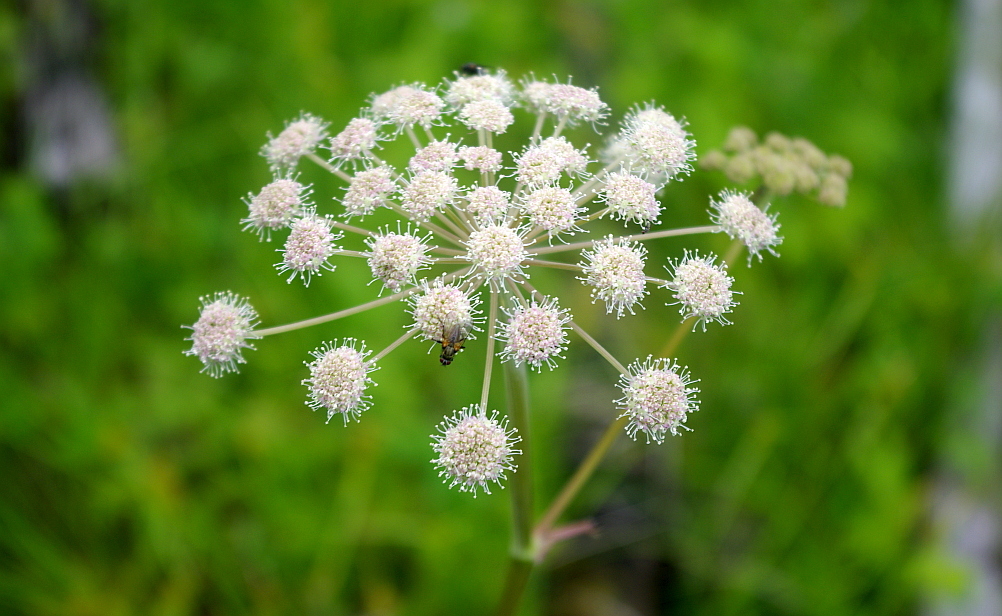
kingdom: Plantae
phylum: Tracheophyta
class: Magnoliopsida
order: Apiales
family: Apiaceae
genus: Angelica
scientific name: Angelica sylvestris
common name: Wild angelica
